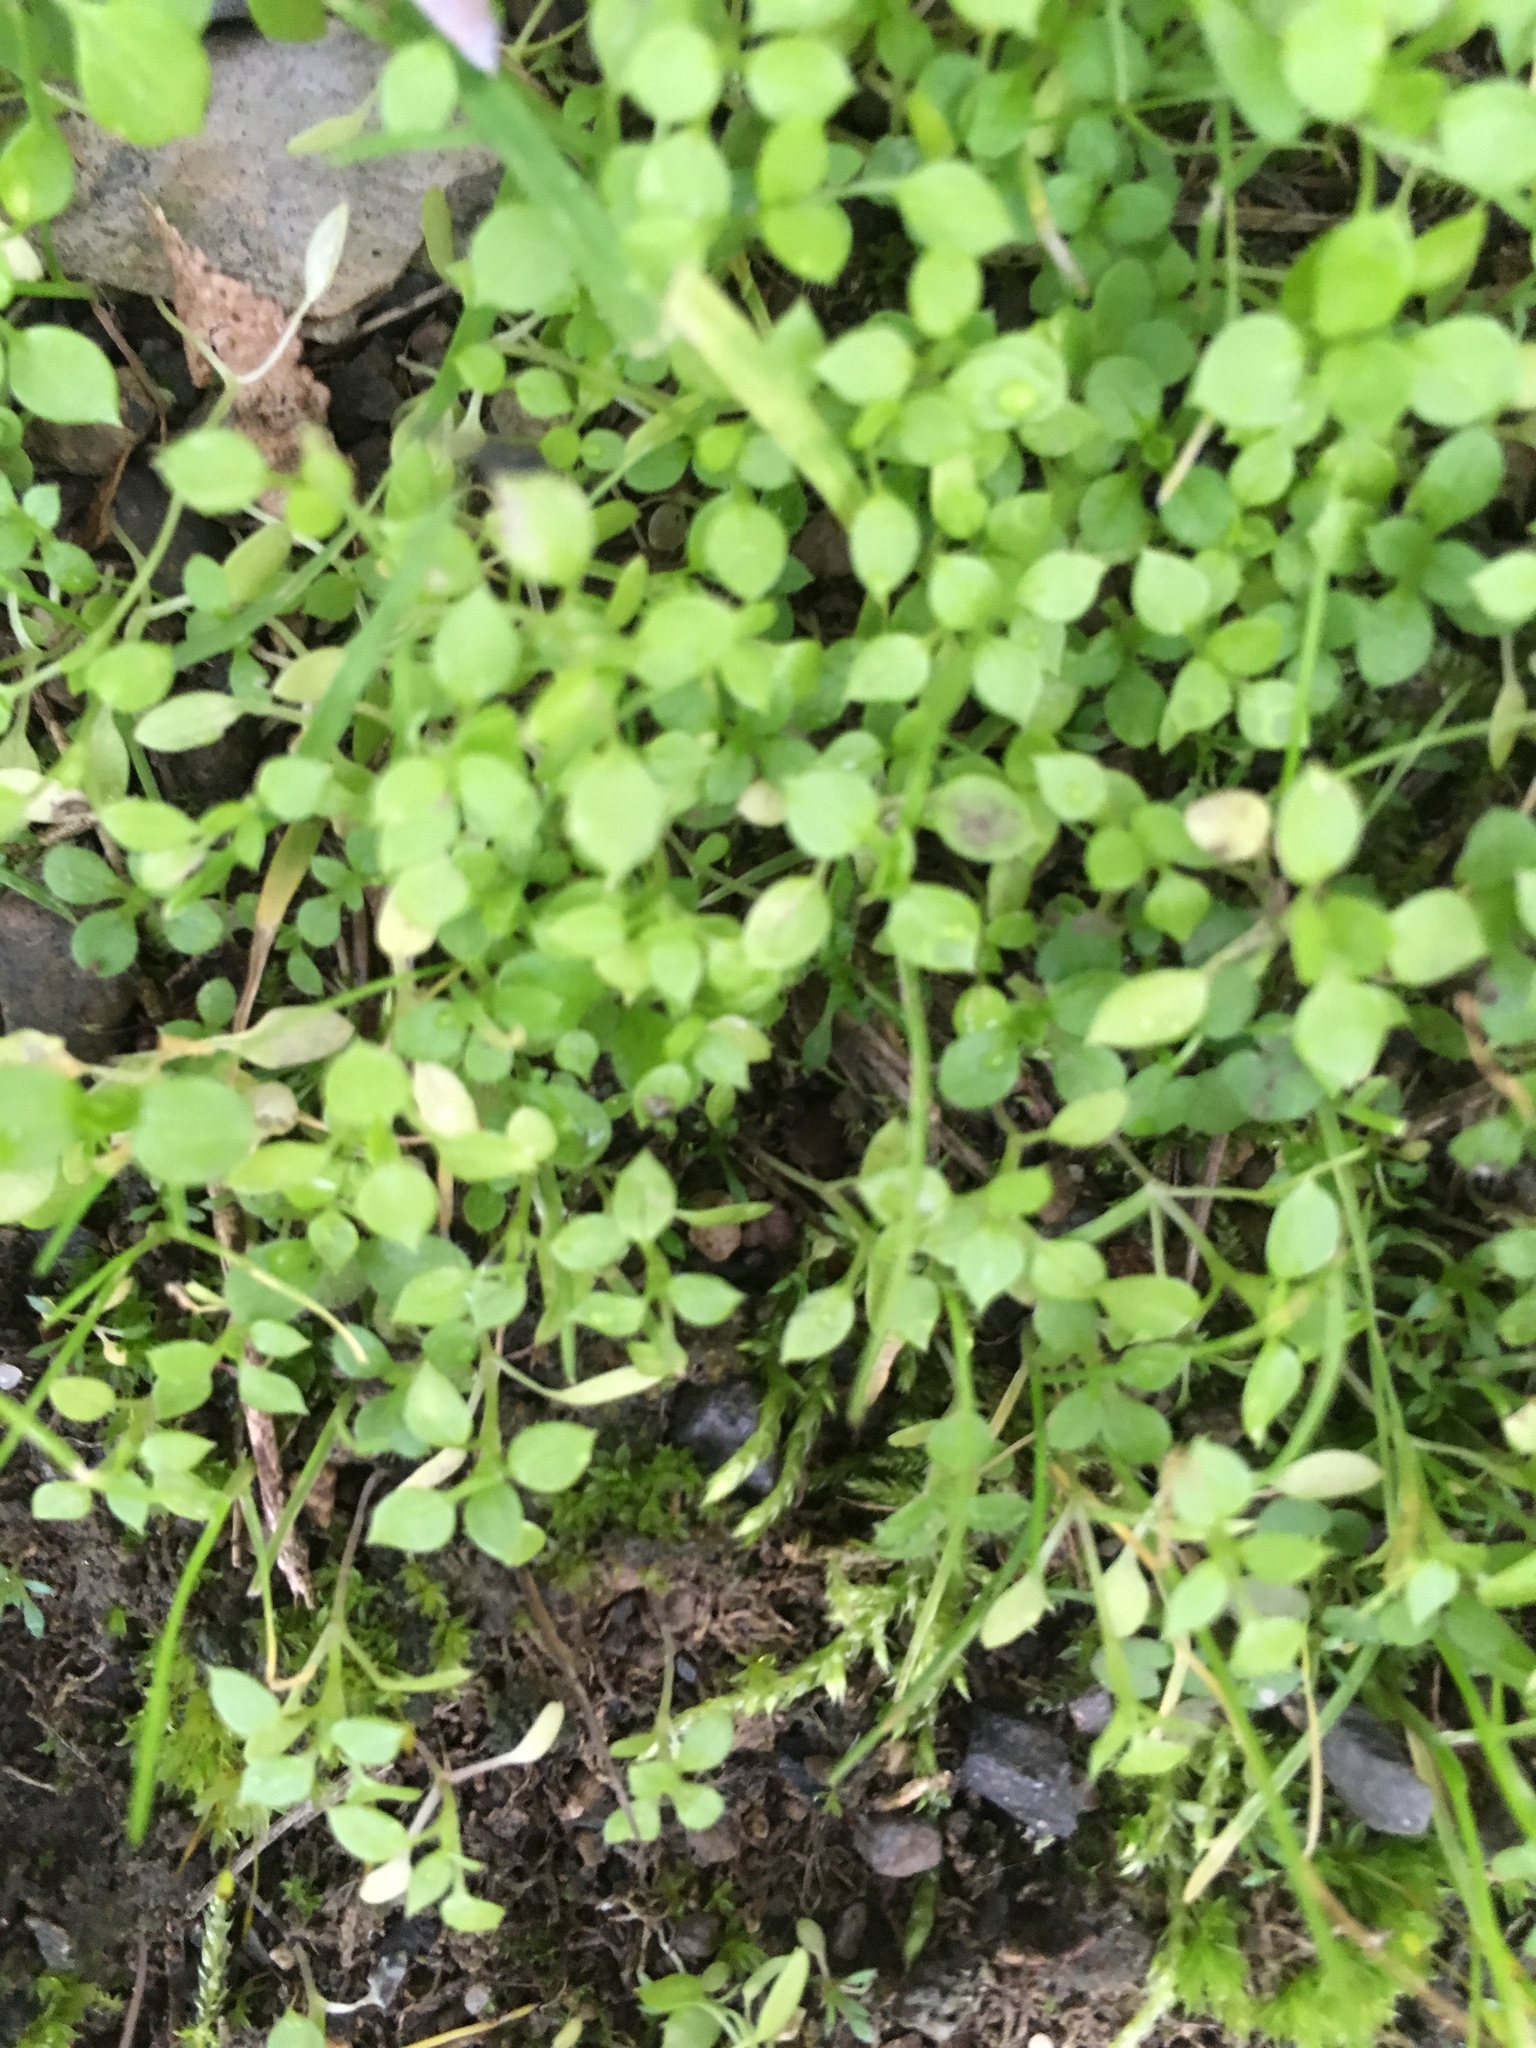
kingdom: Plantae
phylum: Tracheophyta
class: Magnoliopsida
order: Caryophyllales
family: Caryophyllaceae
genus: Stellaria
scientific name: Stellaria media
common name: Common chickweed
